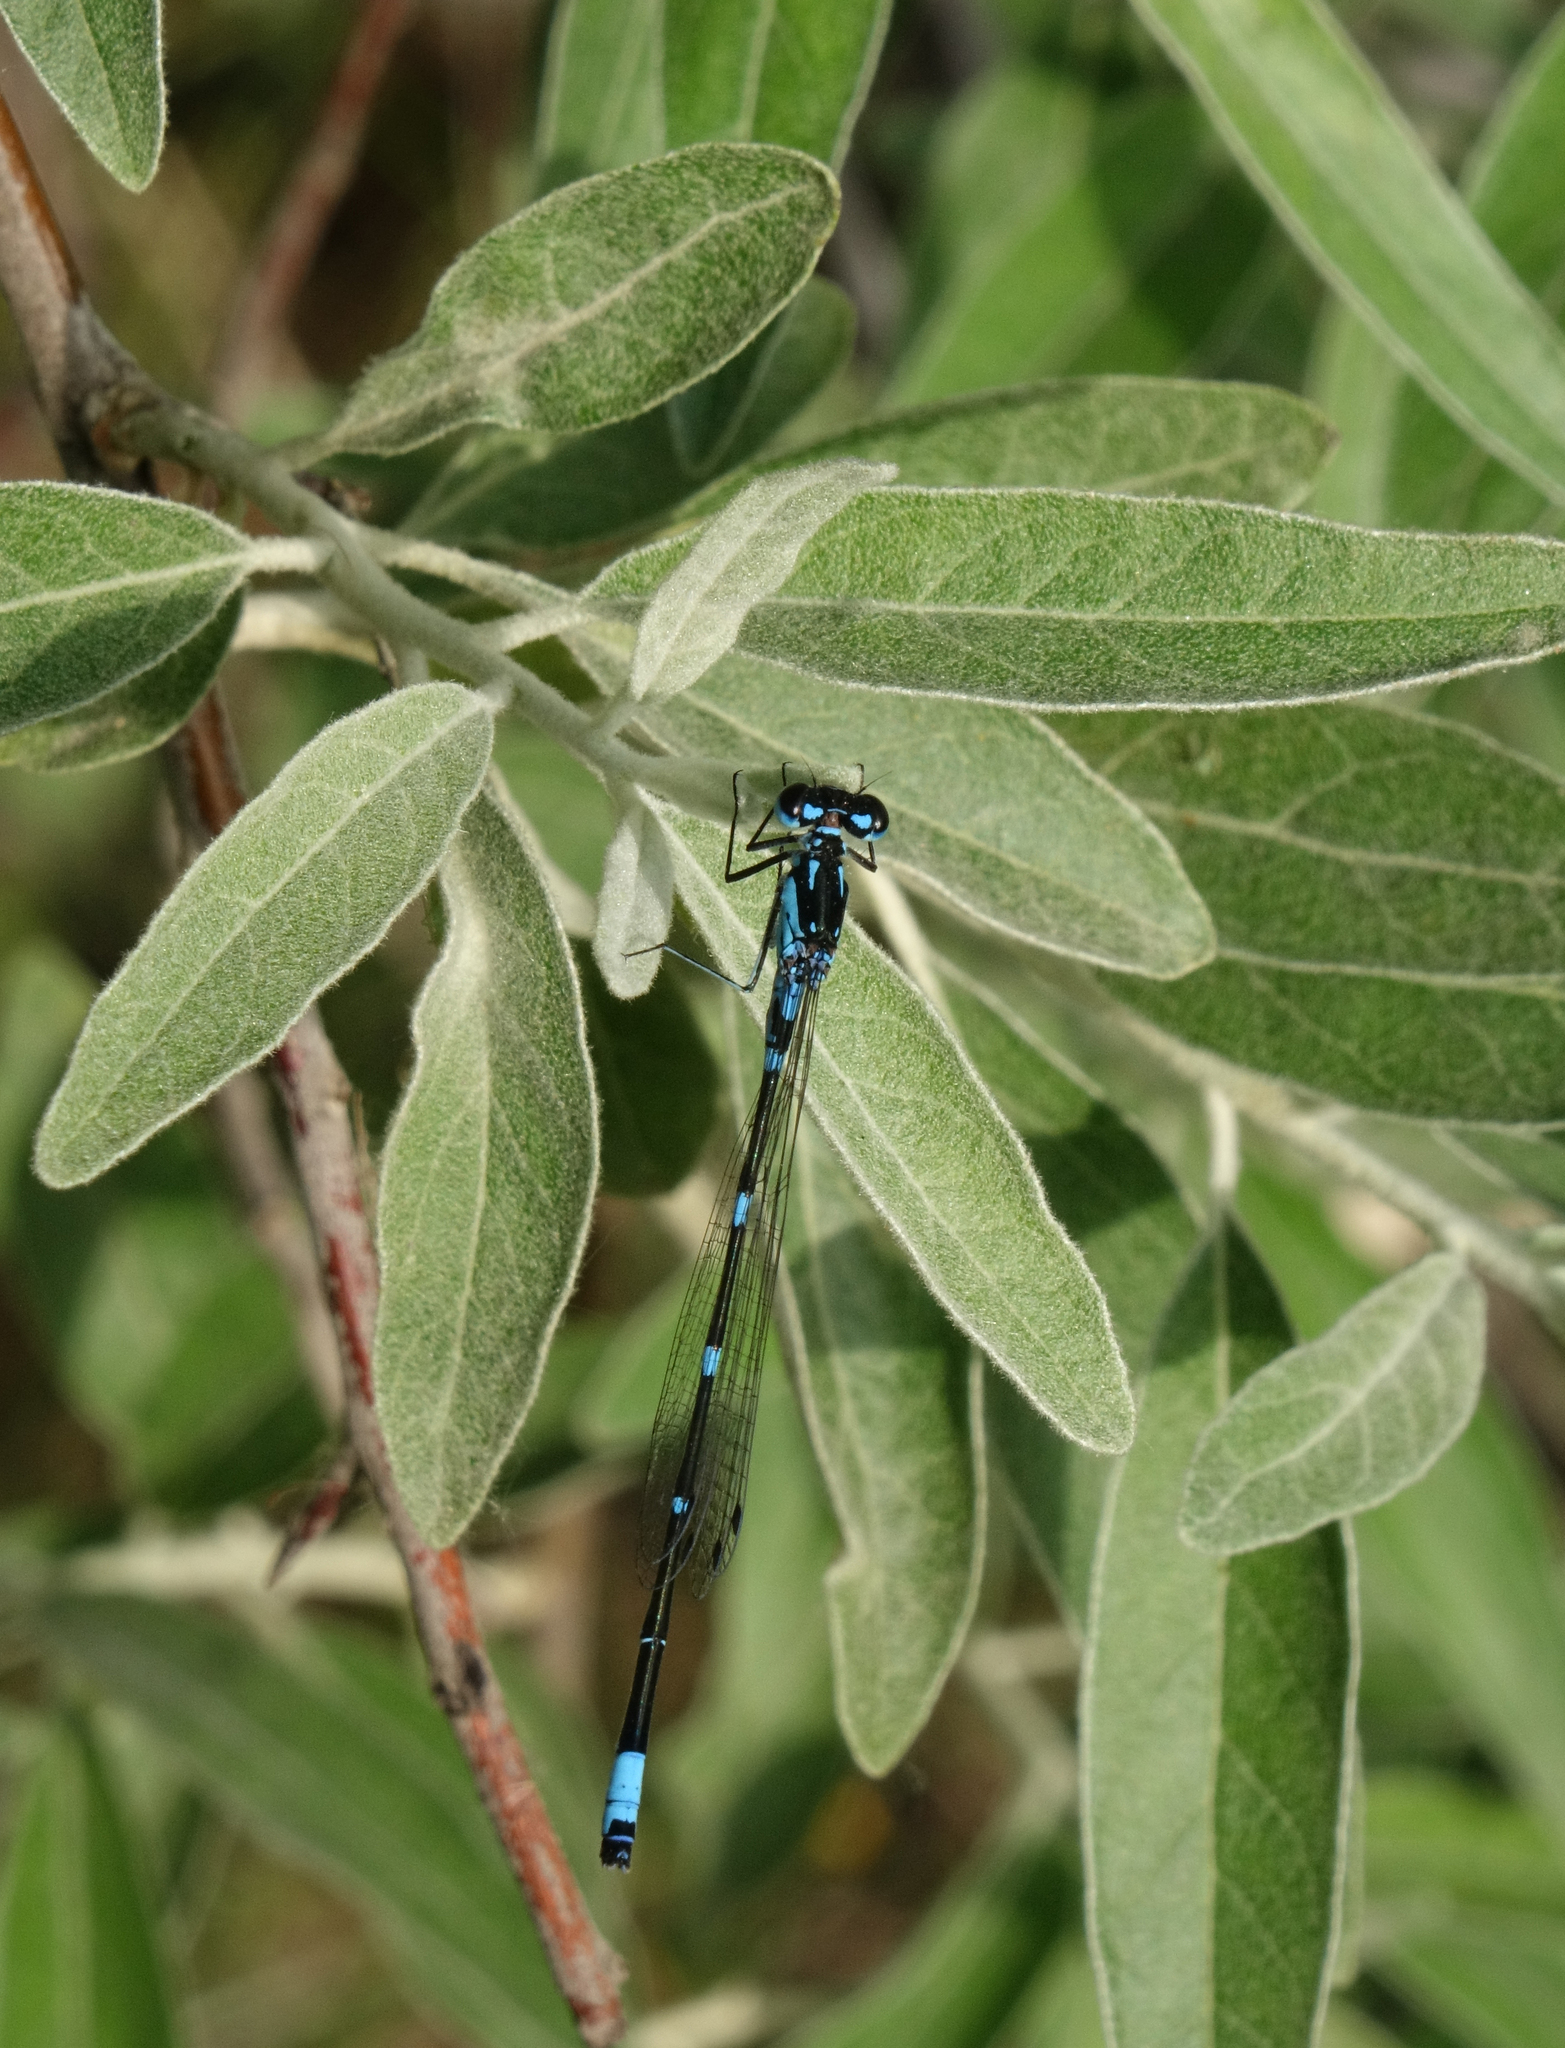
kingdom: Animalia
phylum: Arthropoda
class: Insecta
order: Odonata
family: Coenagrionidae
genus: Coenagrion
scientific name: Coenagrion pulchellum
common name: Variable bluet
